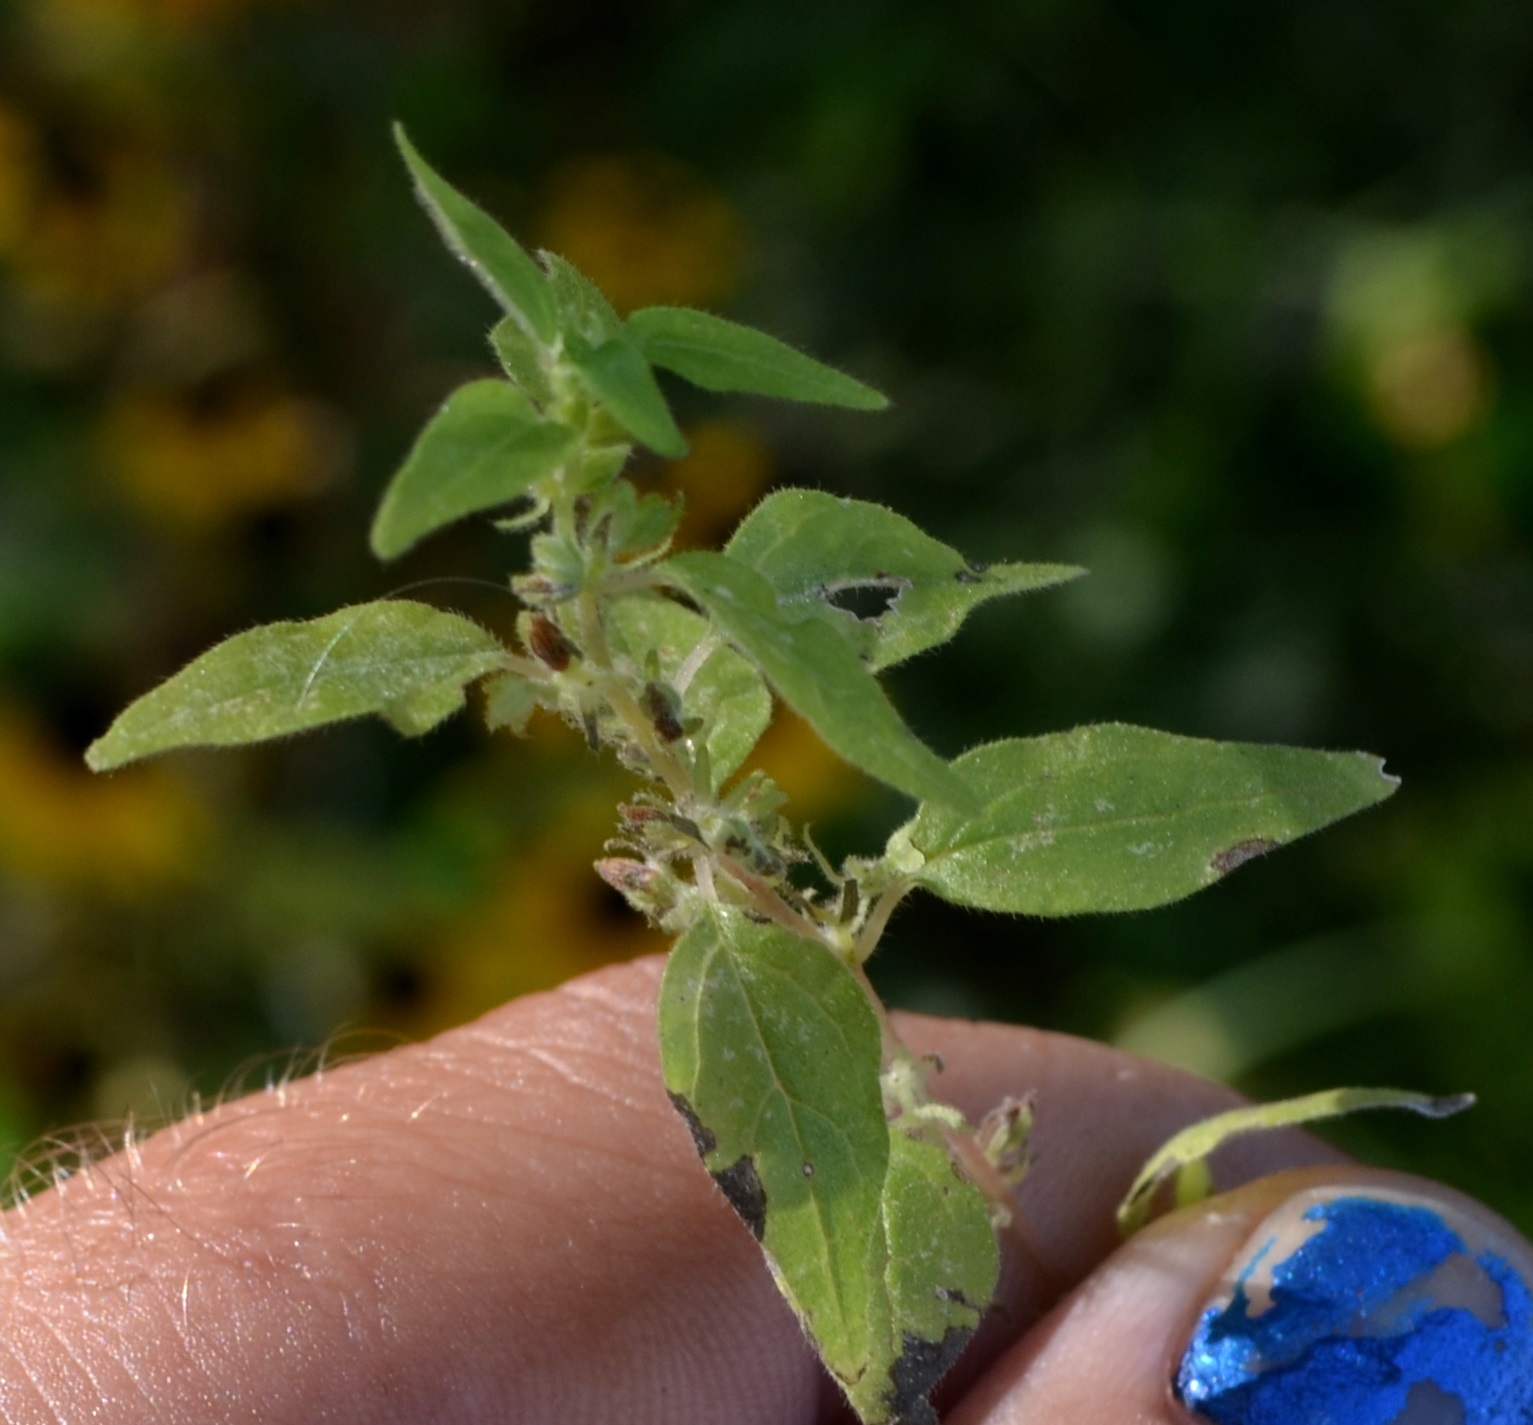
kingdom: Plantae
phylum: Tracheophyta
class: Magnoliopsida
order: Rosales
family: Urticaceae
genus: Parietaria
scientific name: Parietaria pensylvanica
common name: Pennsylvania pellitory
